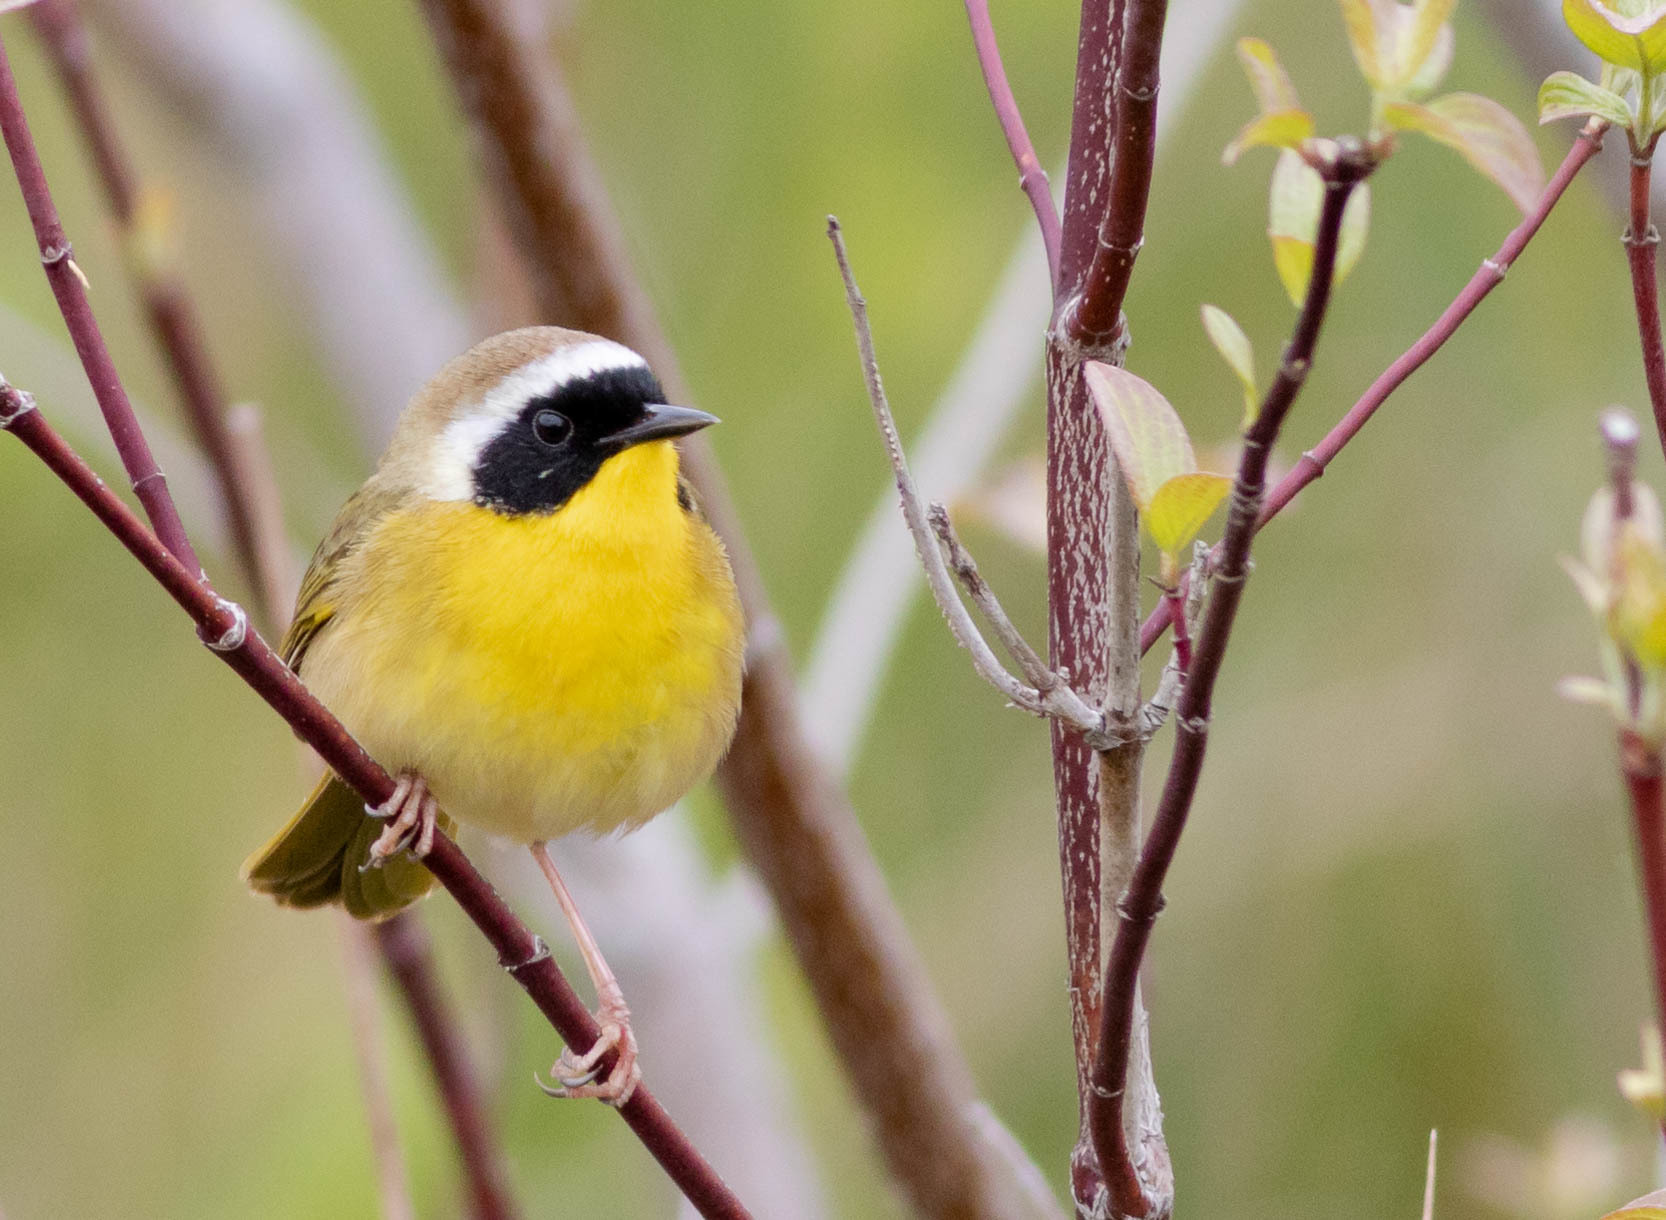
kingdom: Animalia
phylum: Chordata
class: Aves
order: Passeriformes
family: Parulidae
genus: Geothlypis
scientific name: Geothlypis trichas
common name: Common yellowthroat
